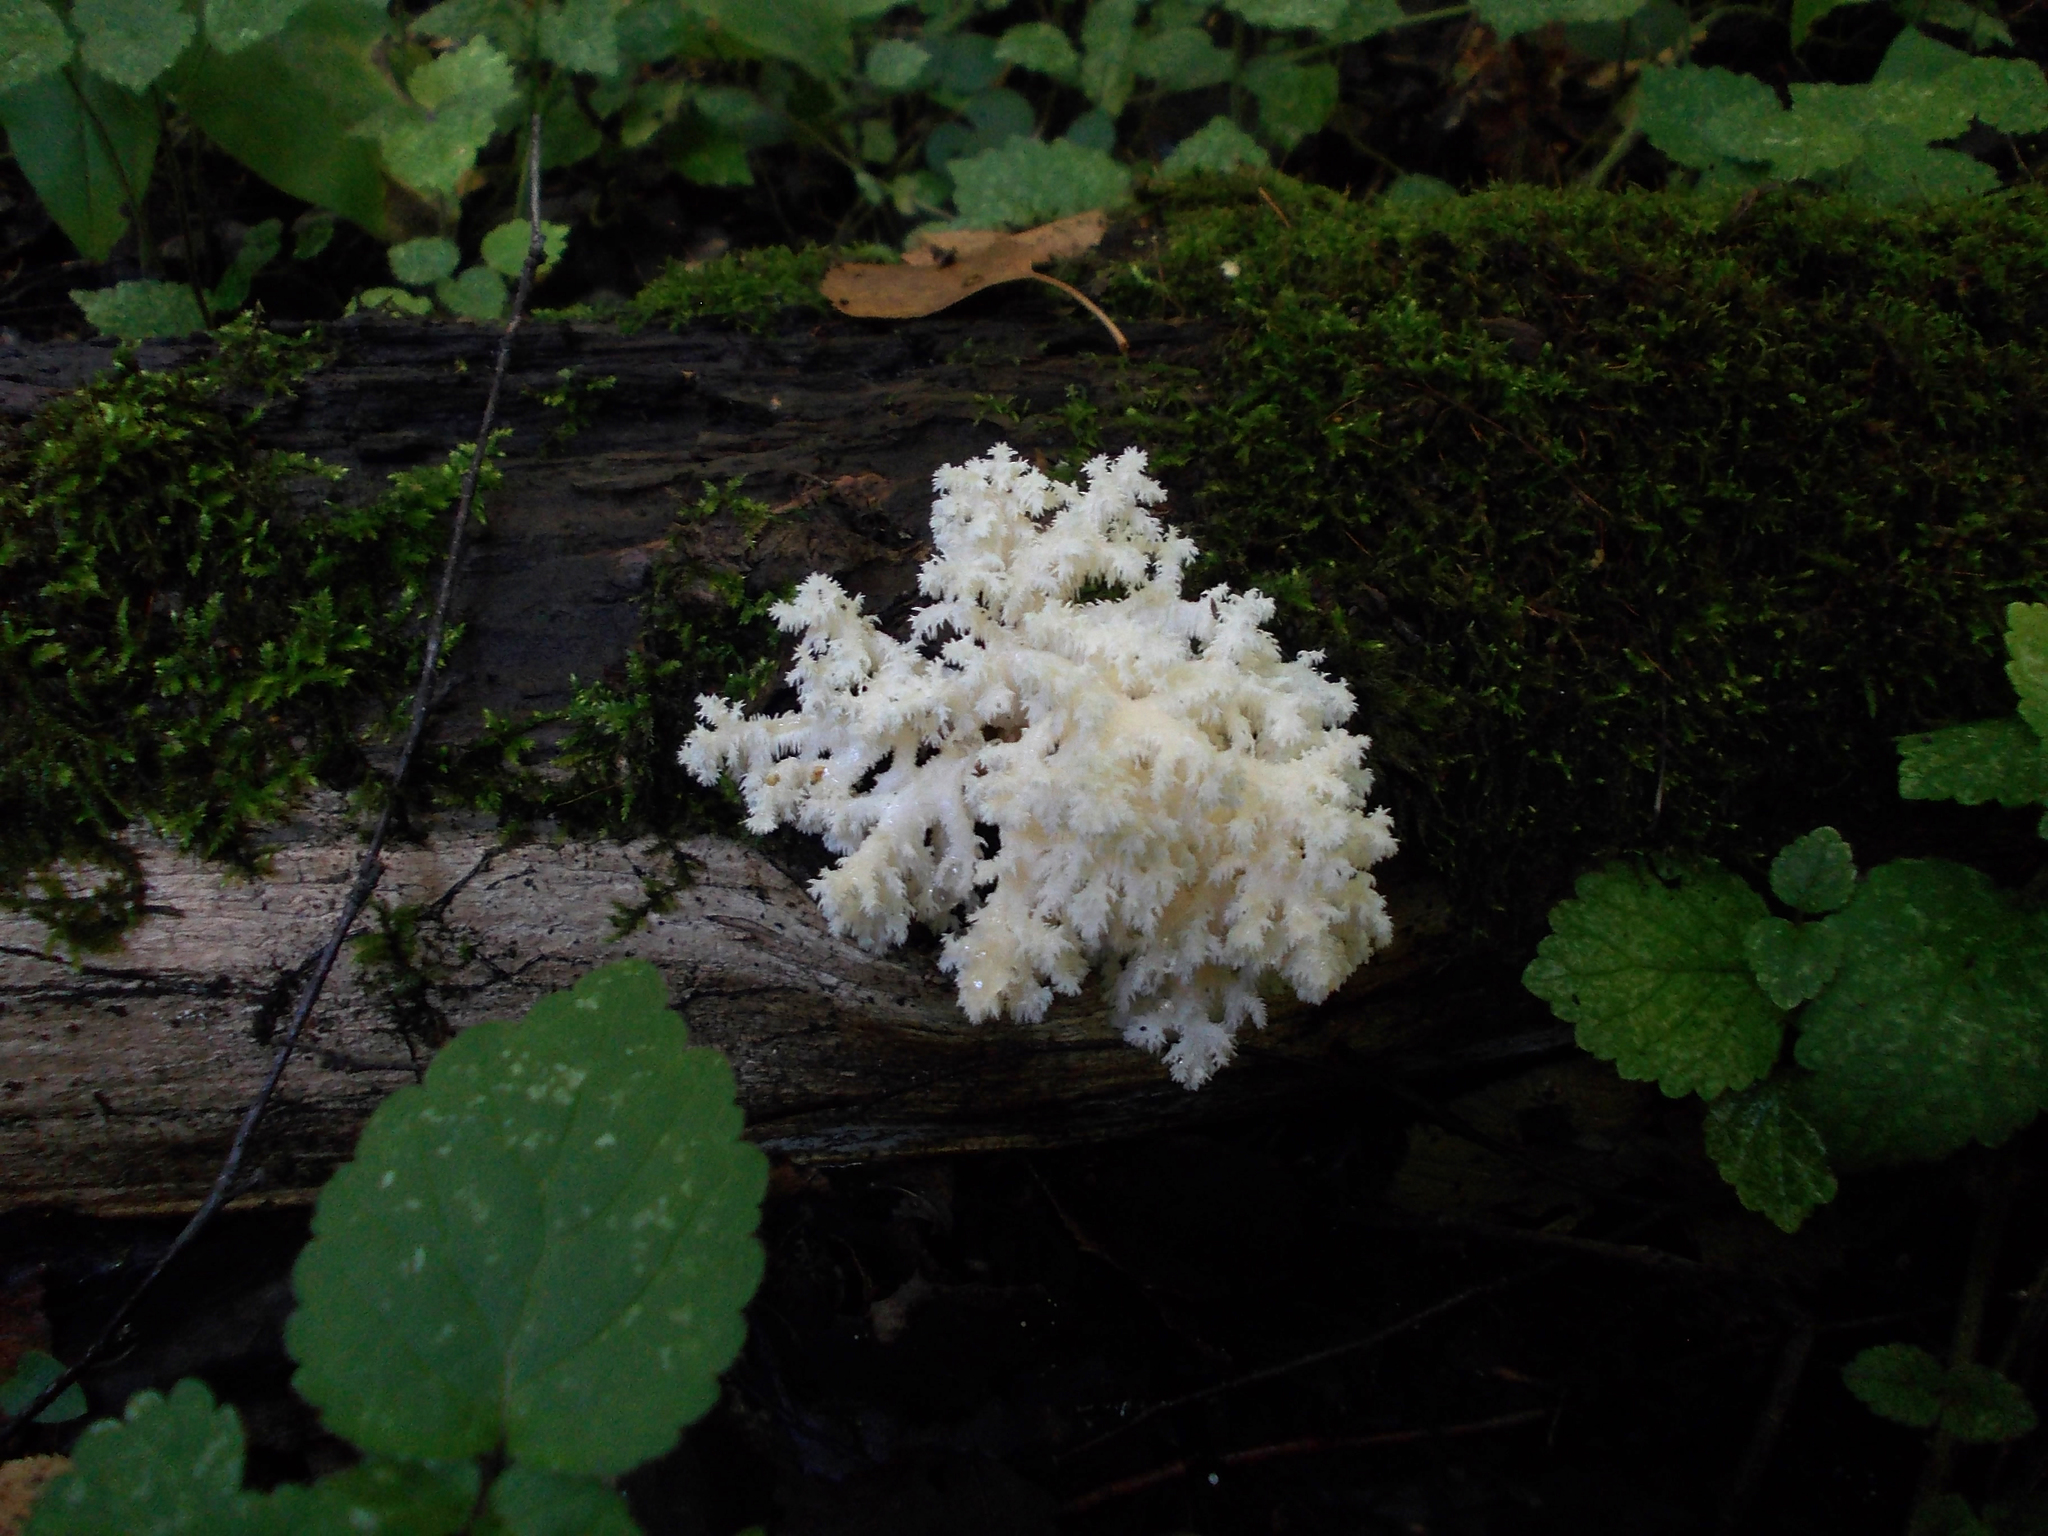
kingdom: Fungi
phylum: Basidiomycota
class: Agaricomycetes
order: Russulales
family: Hericiaceae
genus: Hericium
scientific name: Hericium coralloides
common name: Coral tooth
